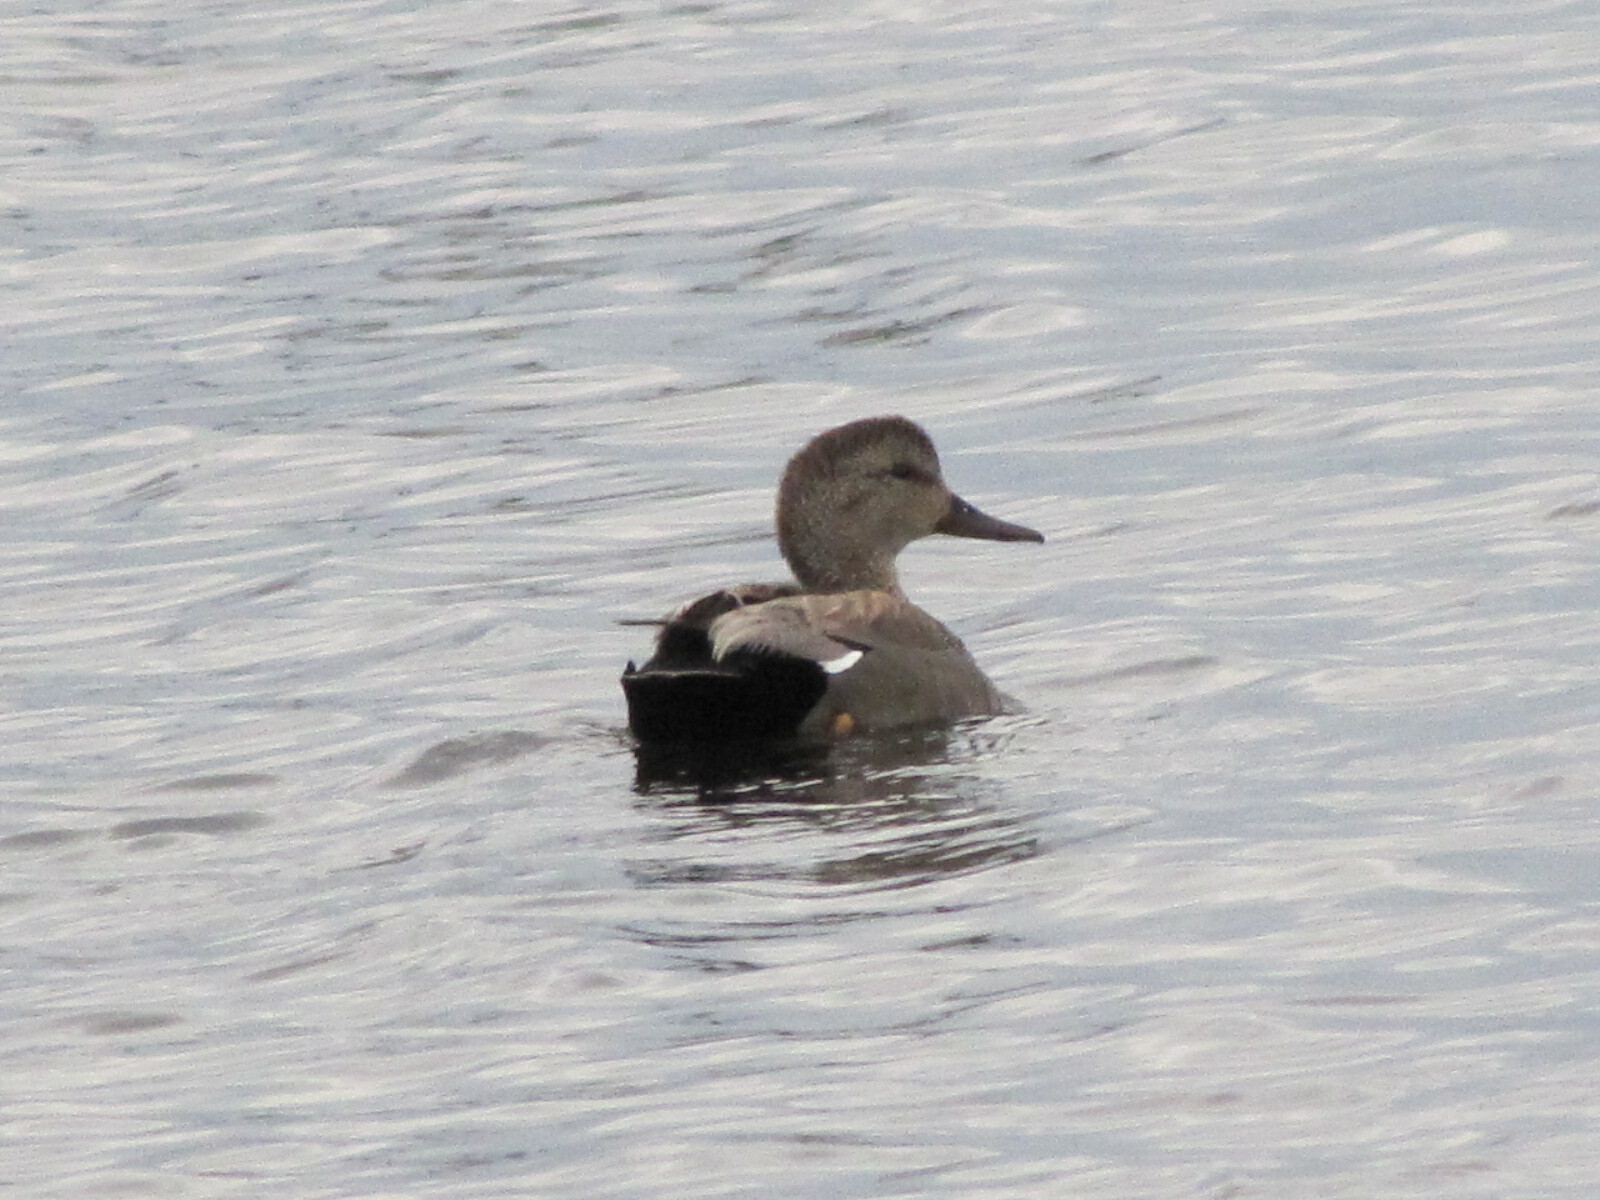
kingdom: Animalia
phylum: Chordata
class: Aves
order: Anseriformes
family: Anatidae
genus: Mareca
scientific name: Mareca strepera
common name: Gadwall
